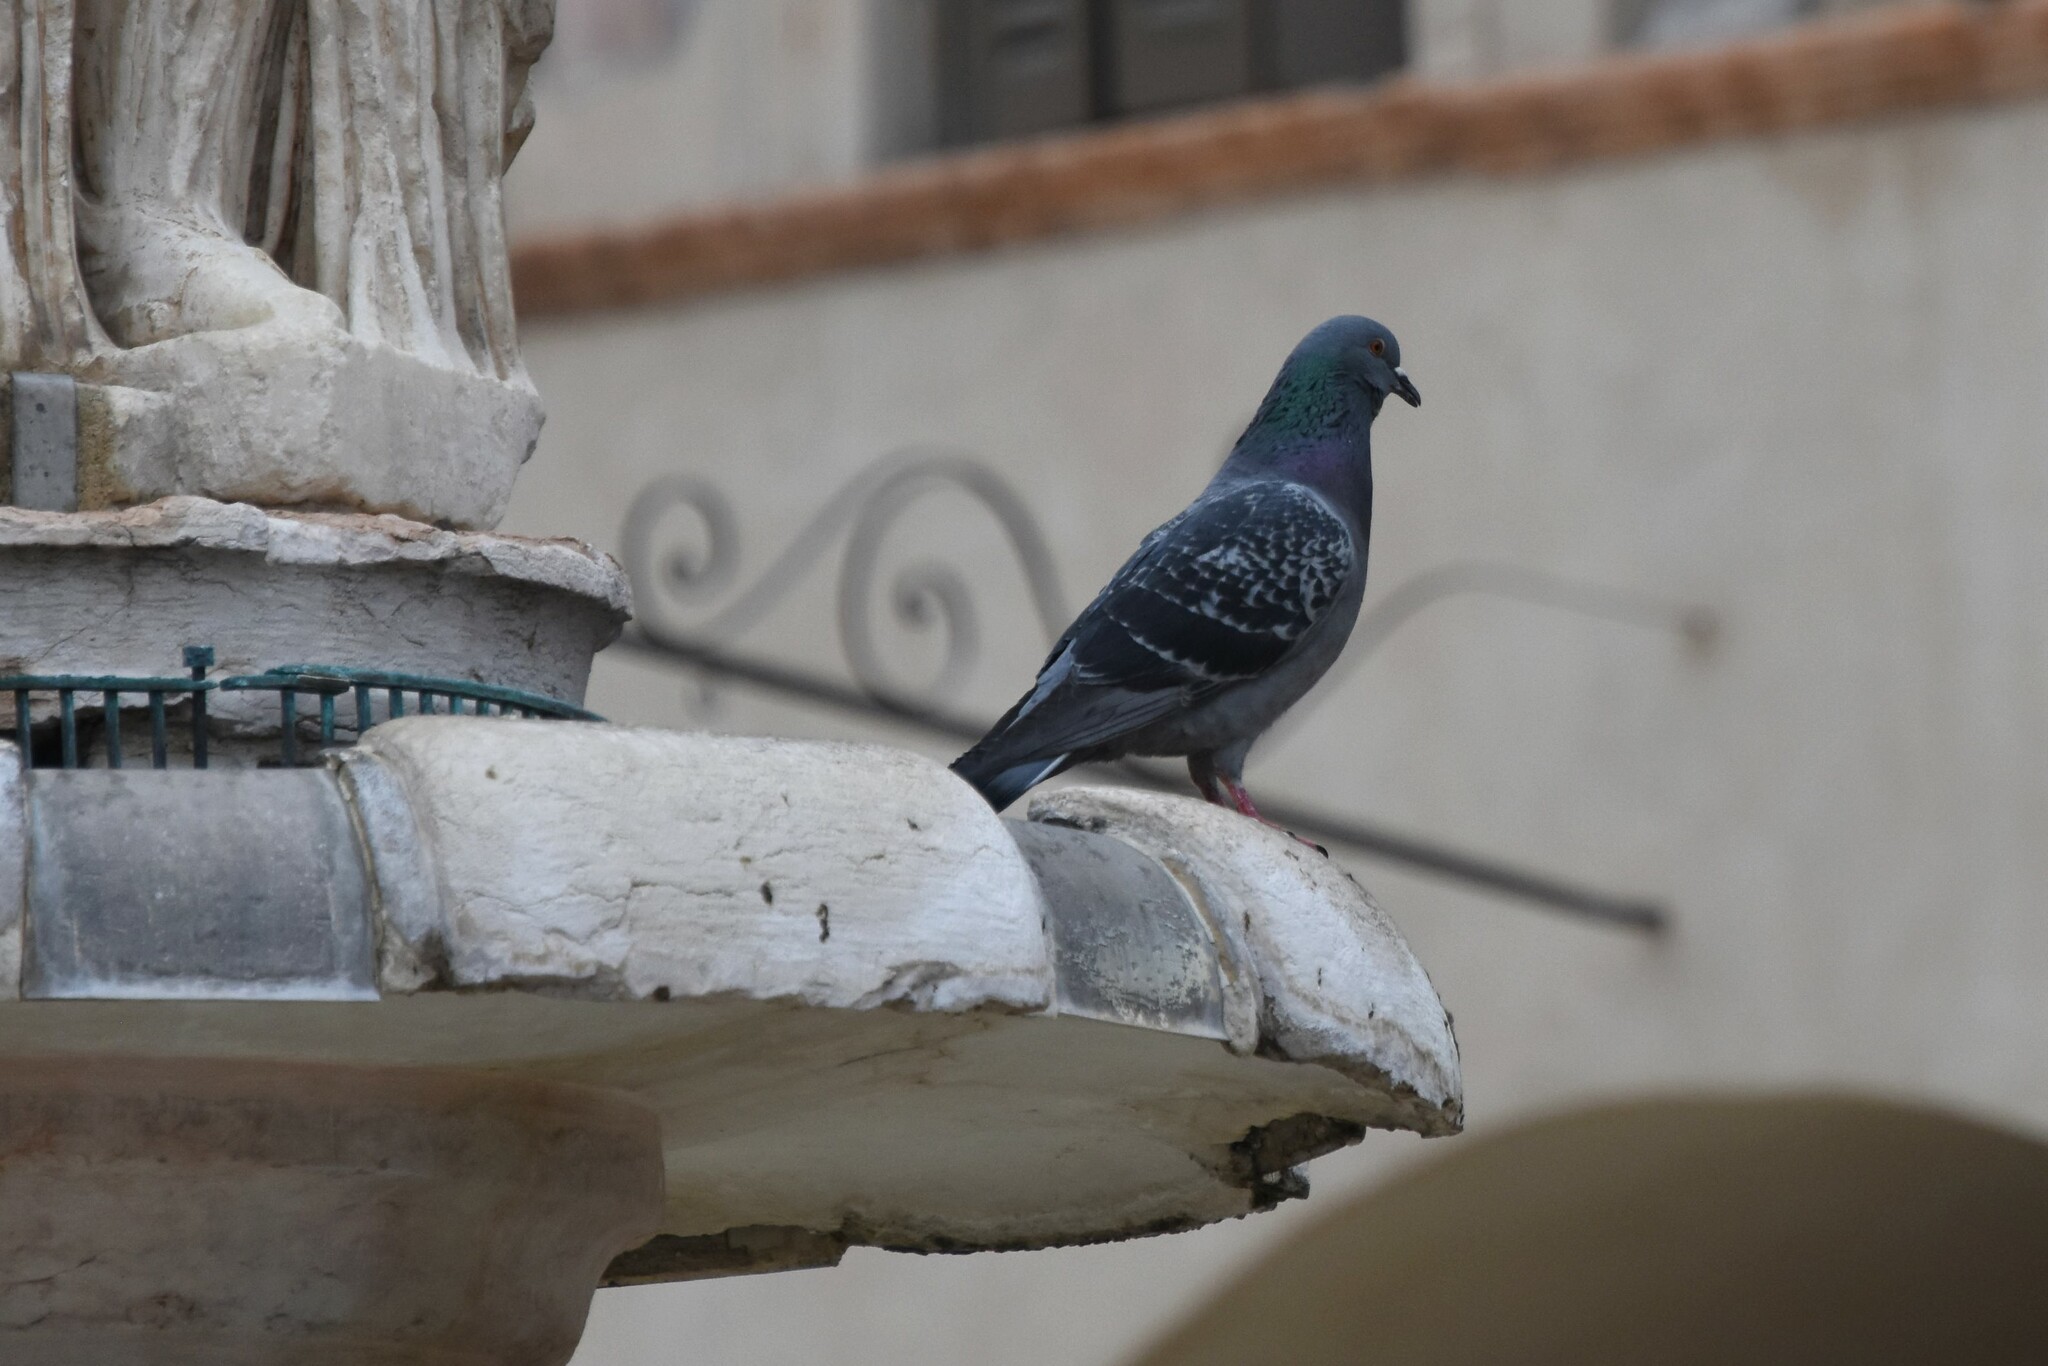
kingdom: Animalia
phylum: Chordata
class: Aves
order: Columbiformes
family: Columbidae
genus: Columba
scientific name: Columba livia
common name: Rock pigeon
